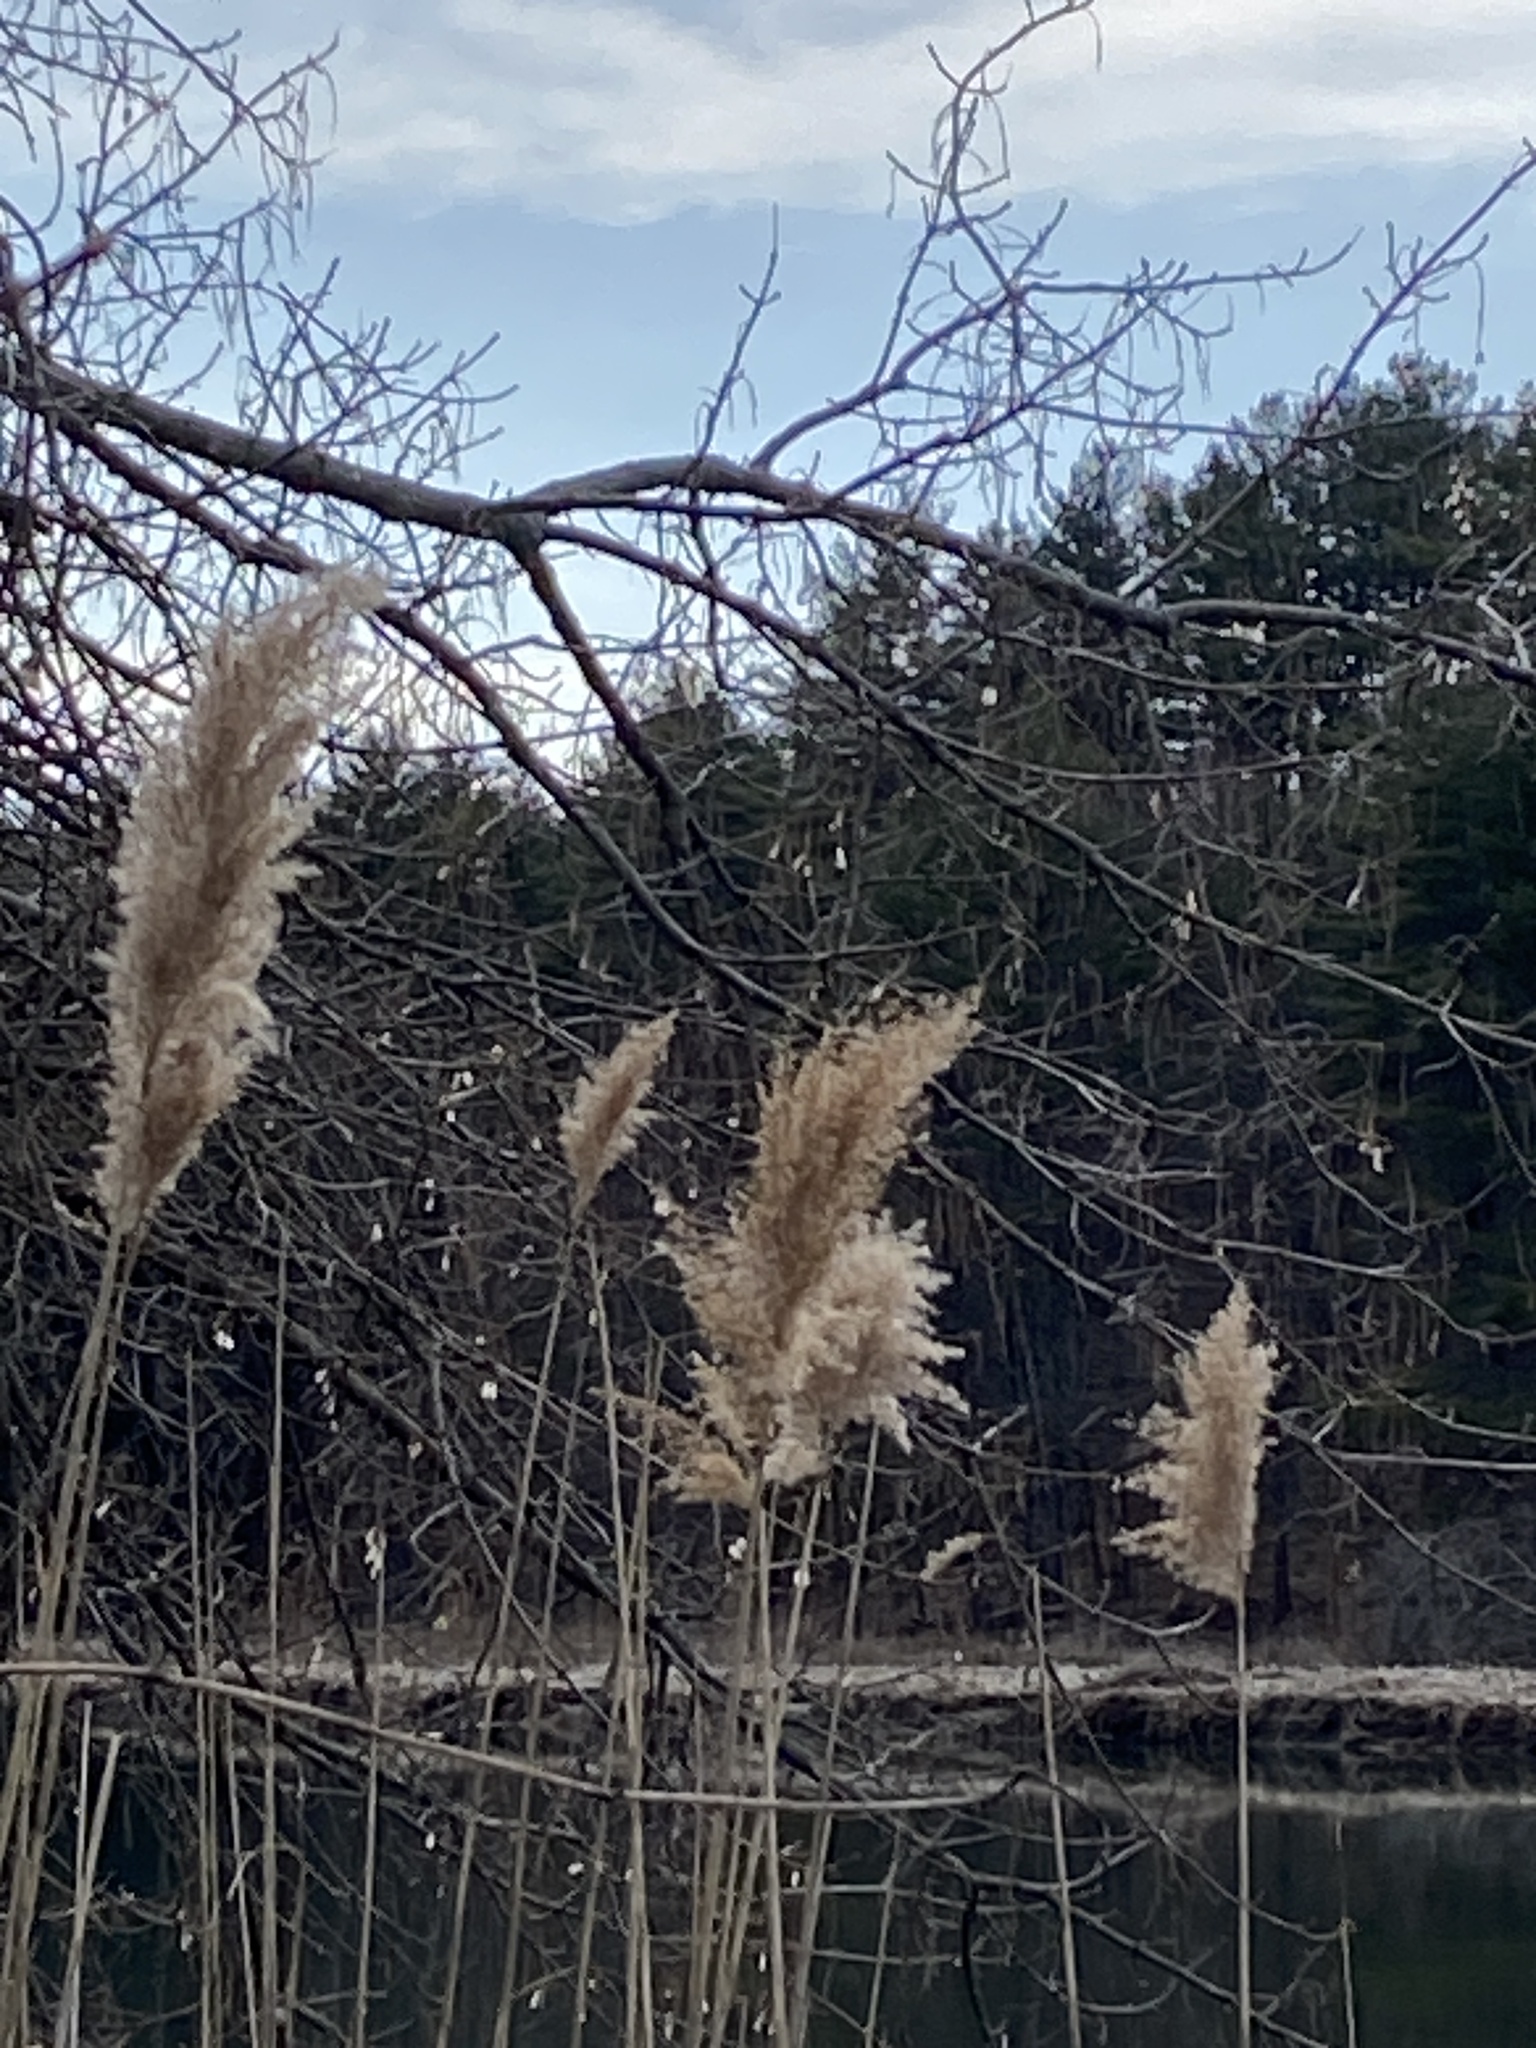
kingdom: Plantae
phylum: Tracheophyta
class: Liliopsida
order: Poales
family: Poaceae
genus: Phragmites
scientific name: Phragmites australis
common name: Common reed
